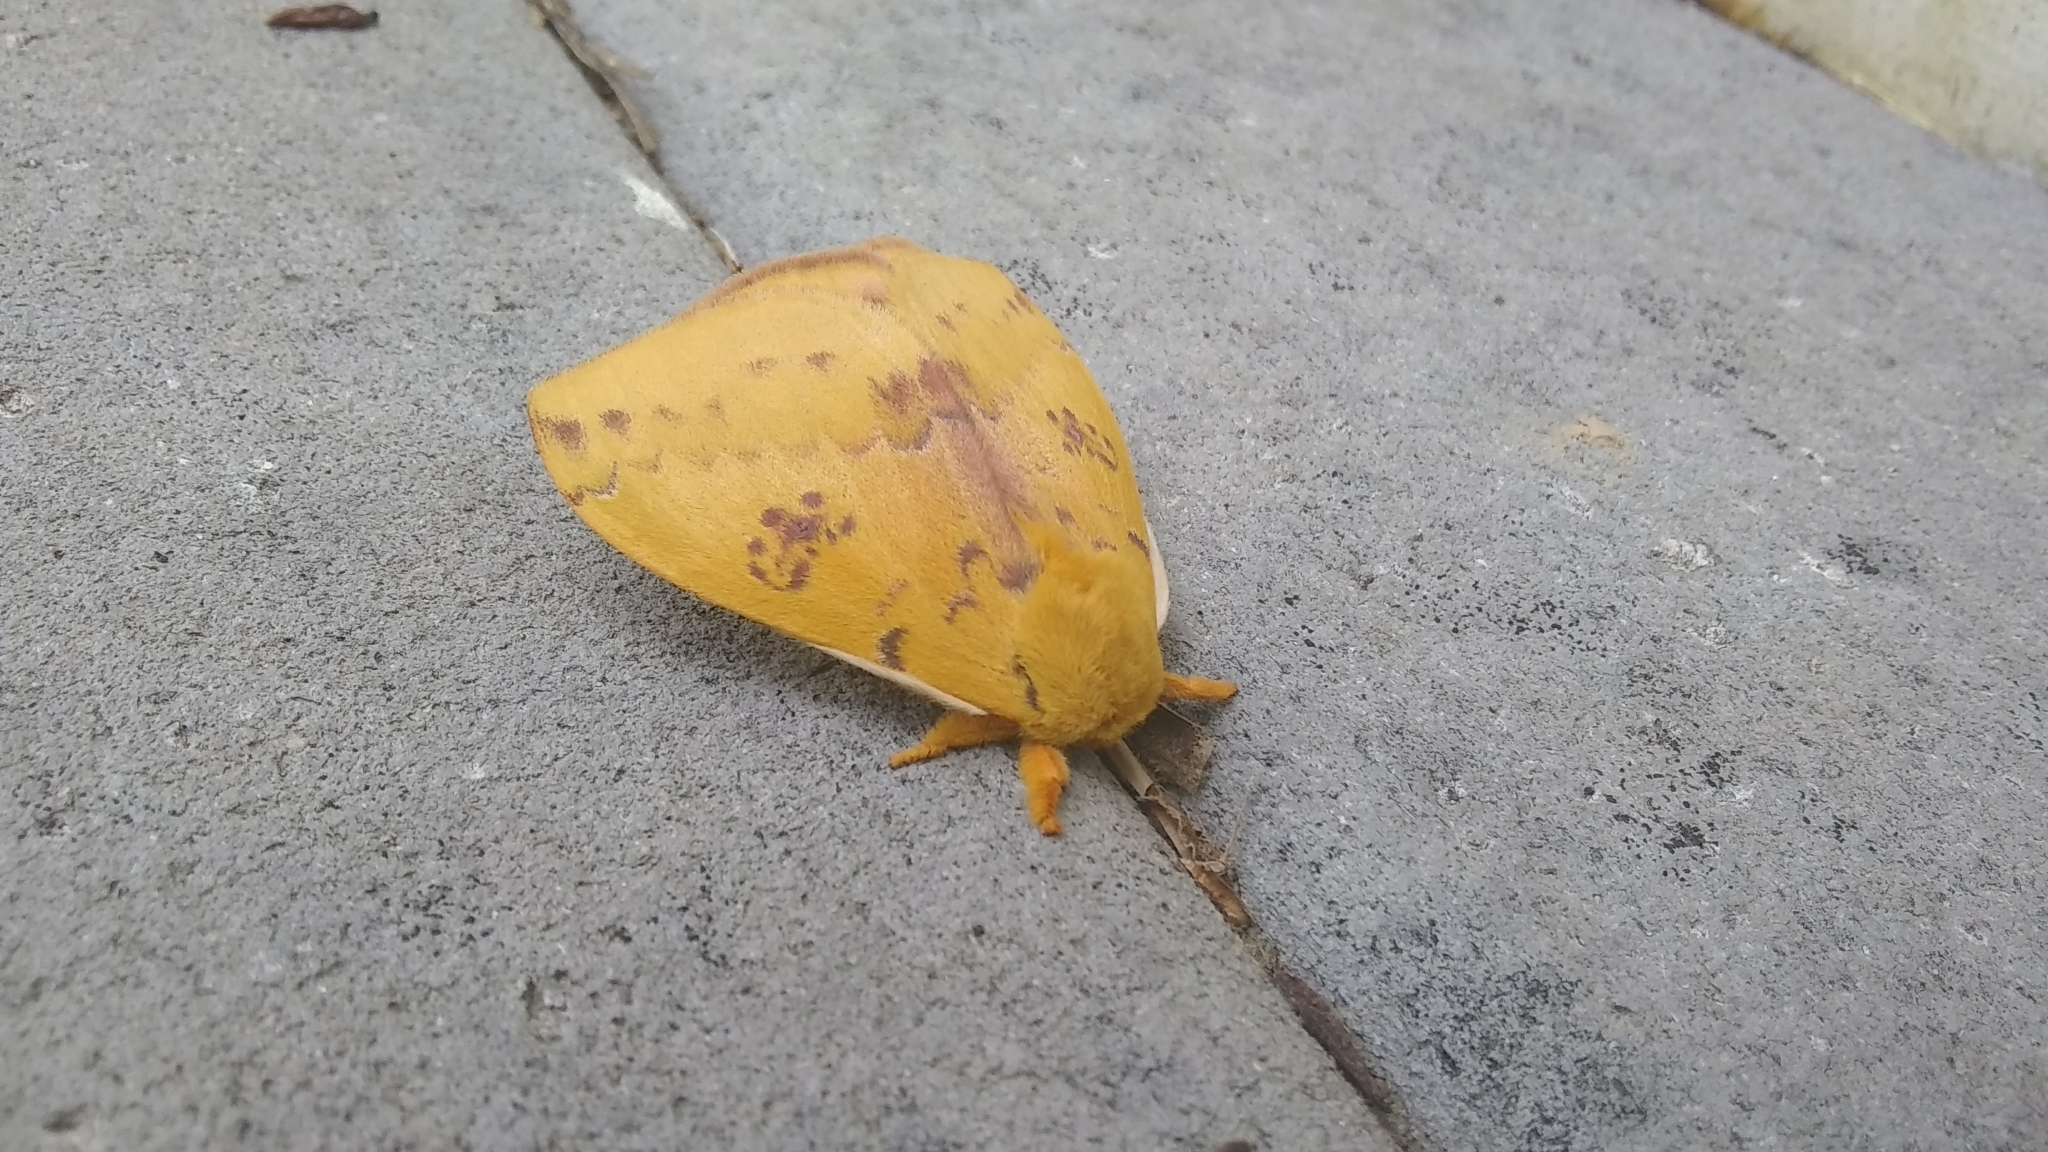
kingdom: Animalia
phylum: Arthropoda
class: Insecta
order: Lepidoptera
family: Saturniidae
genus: Automeris
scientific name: Automeris io
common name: Io moth
